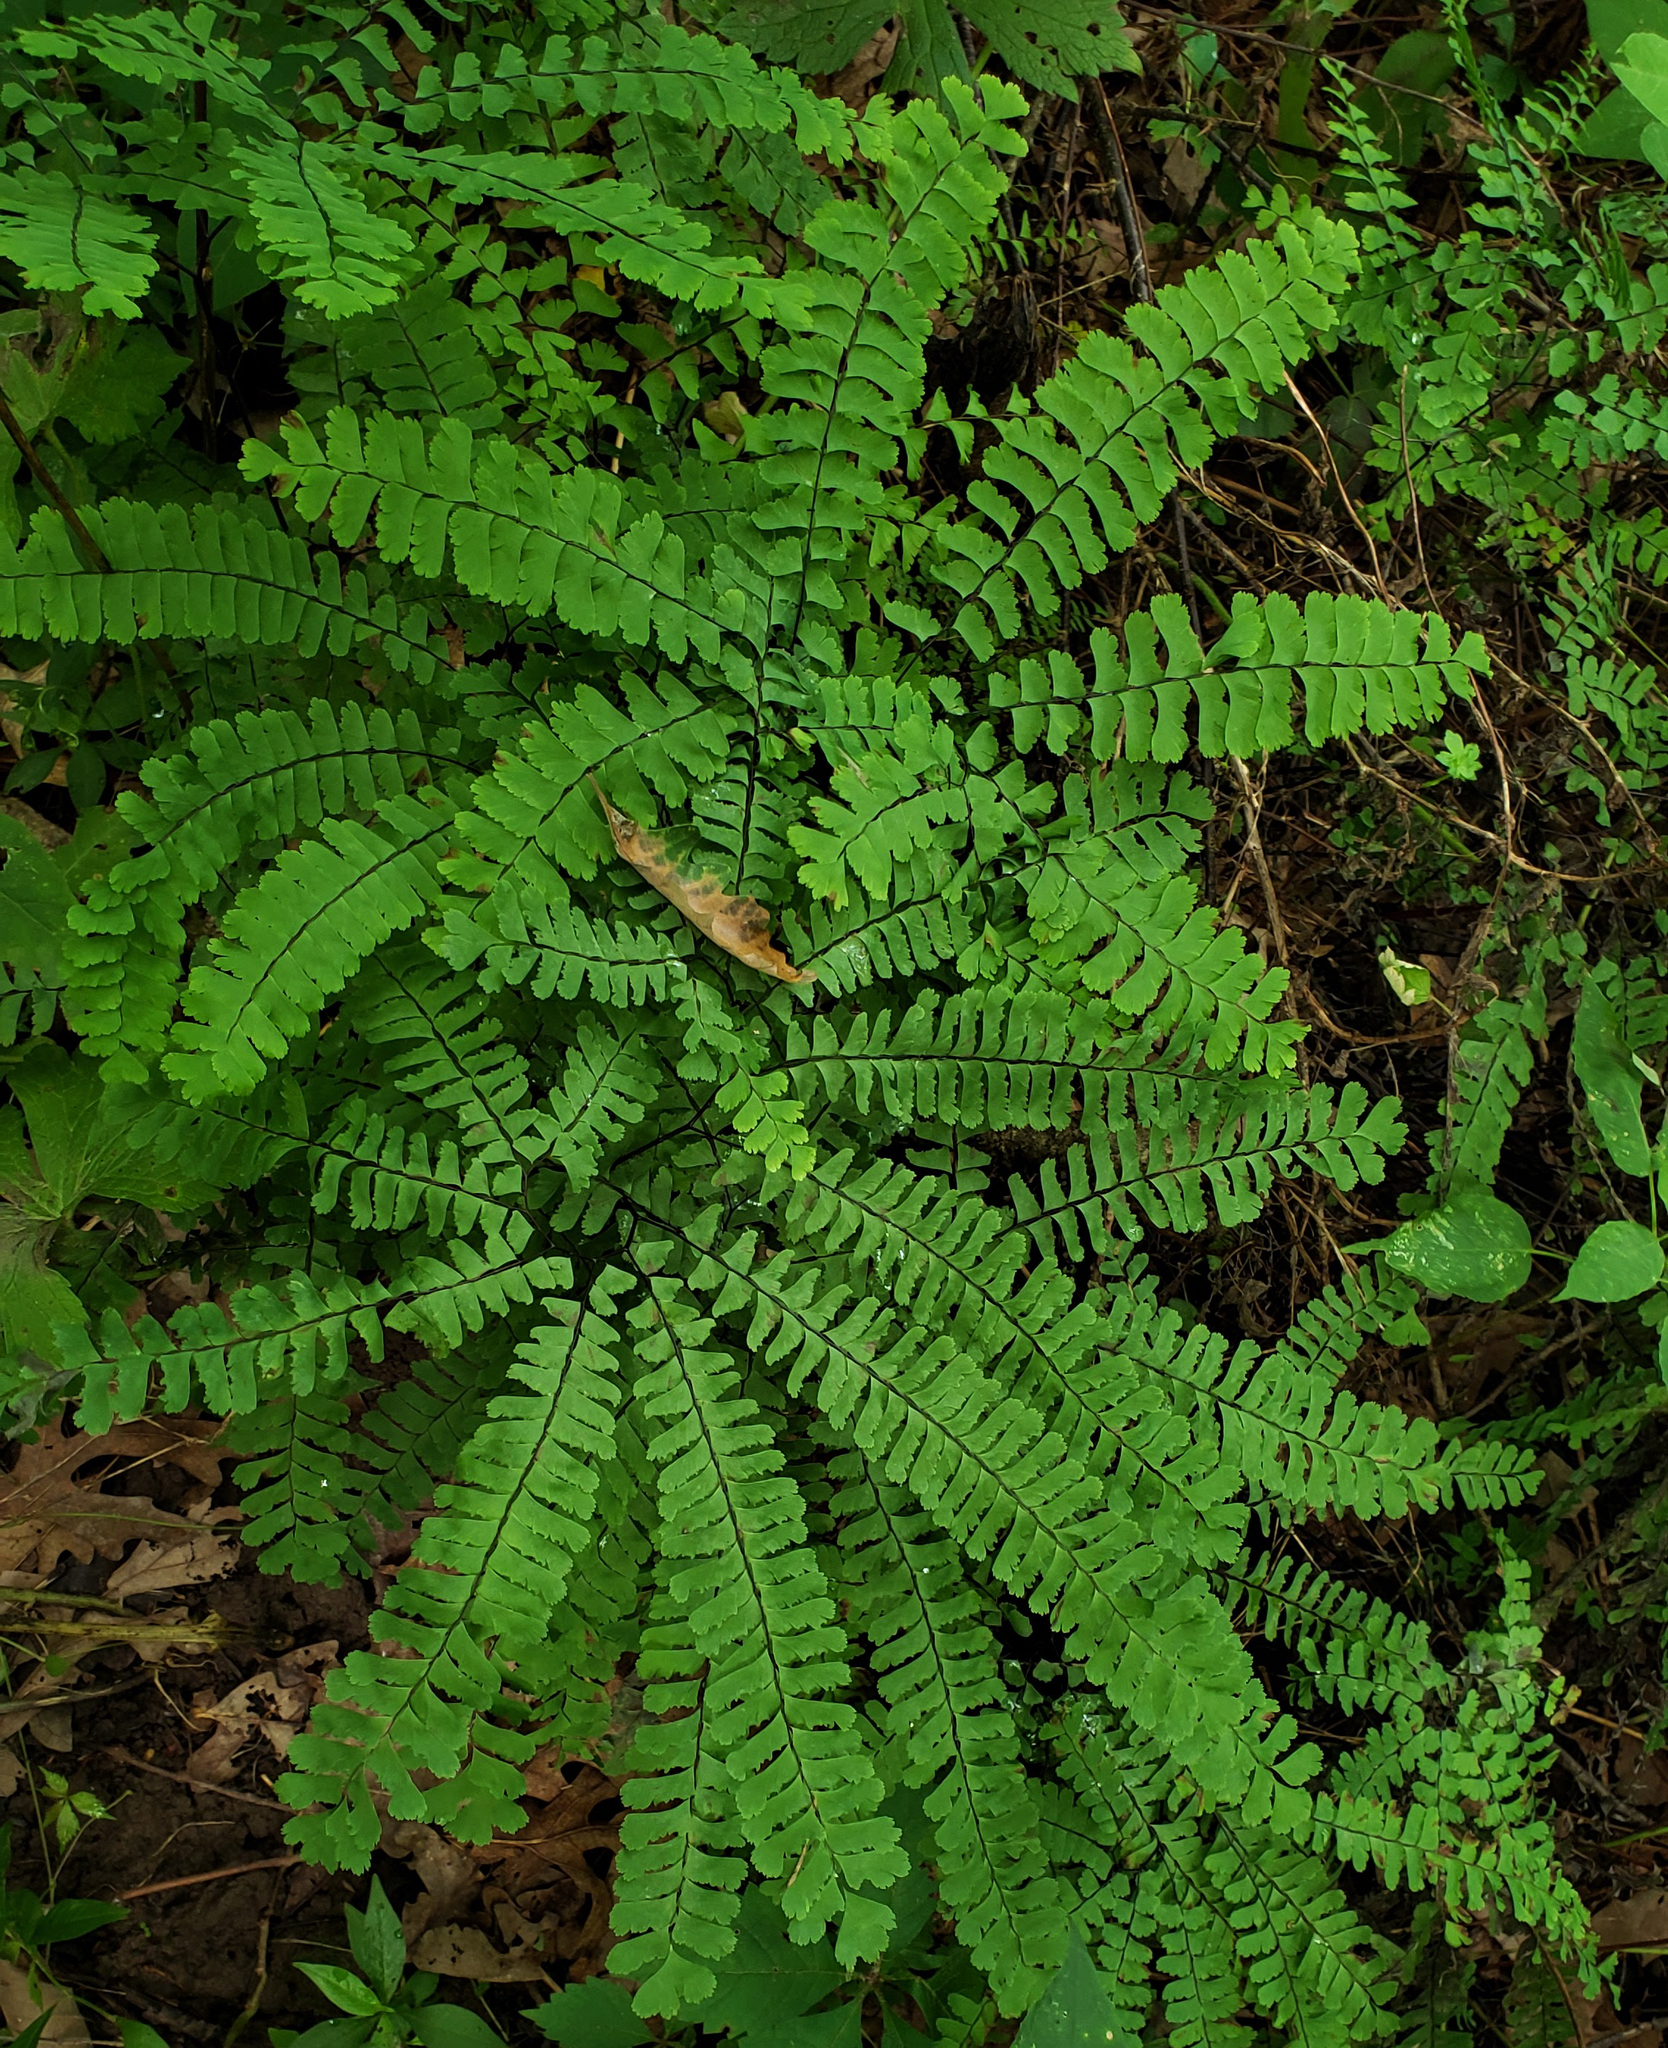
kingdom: Plantae
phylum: Tracheophyta
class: Polypodiopsida
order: Polypodiales
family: Pteridaceae
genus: Adiantum
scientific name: Adiantum pedatum
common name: Five-finger fern
